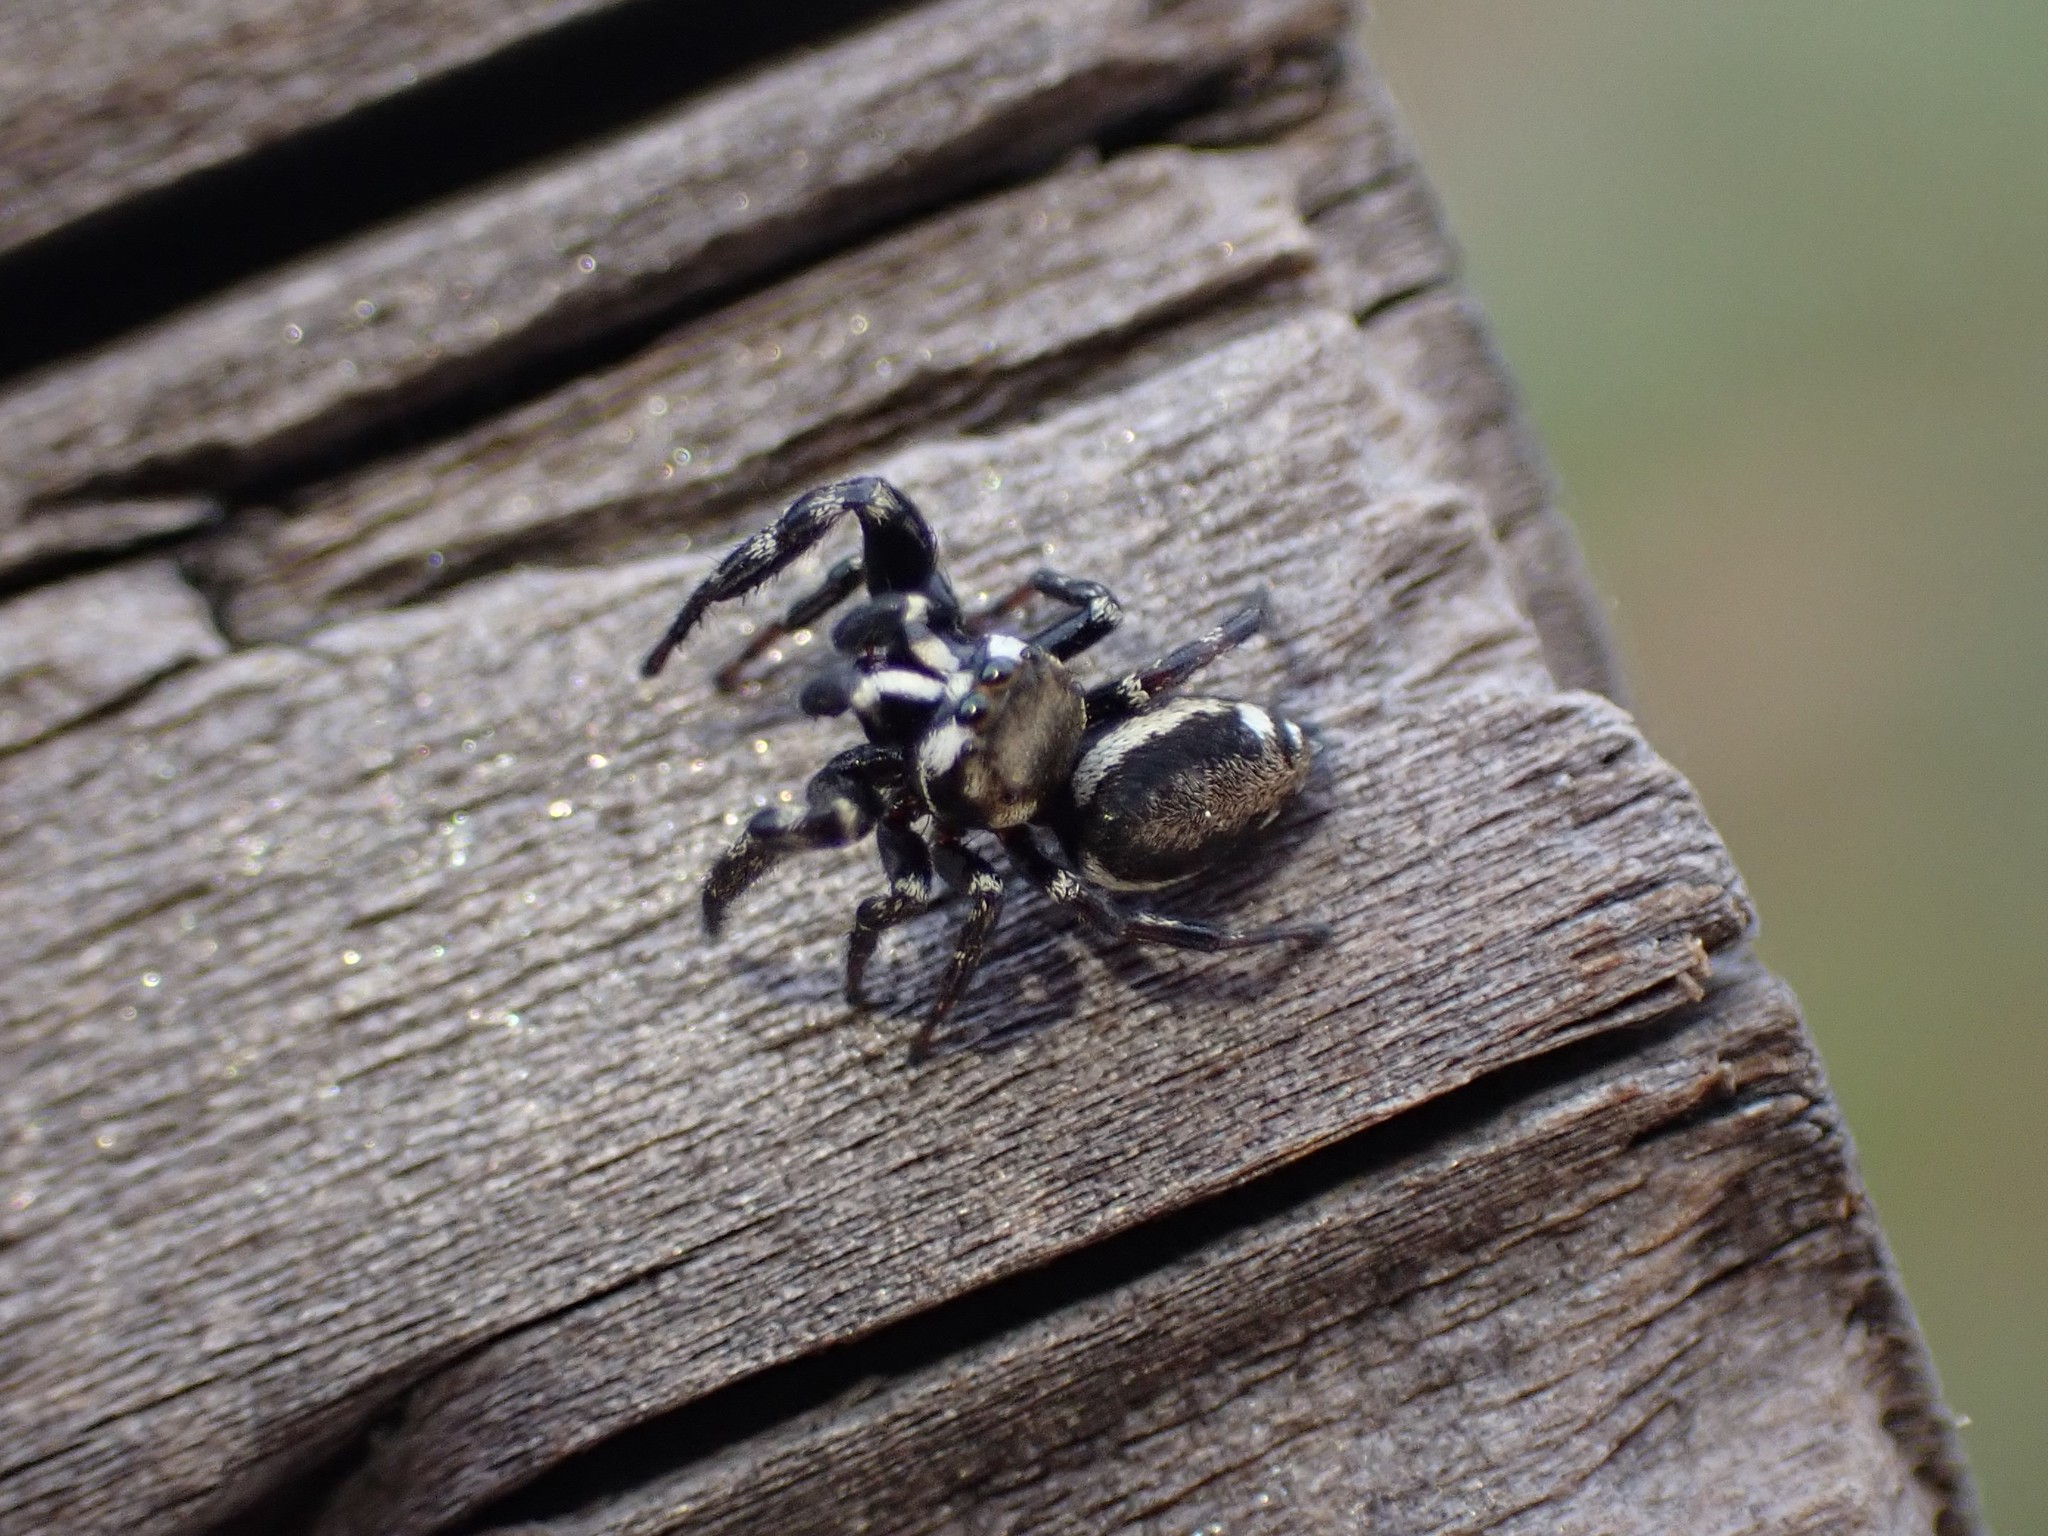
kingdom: Animalia
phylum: Arthropoda
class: Arachnida
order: Araneae
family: Salticidae
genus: Metaphidippus
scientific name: Metaphidippus manni
